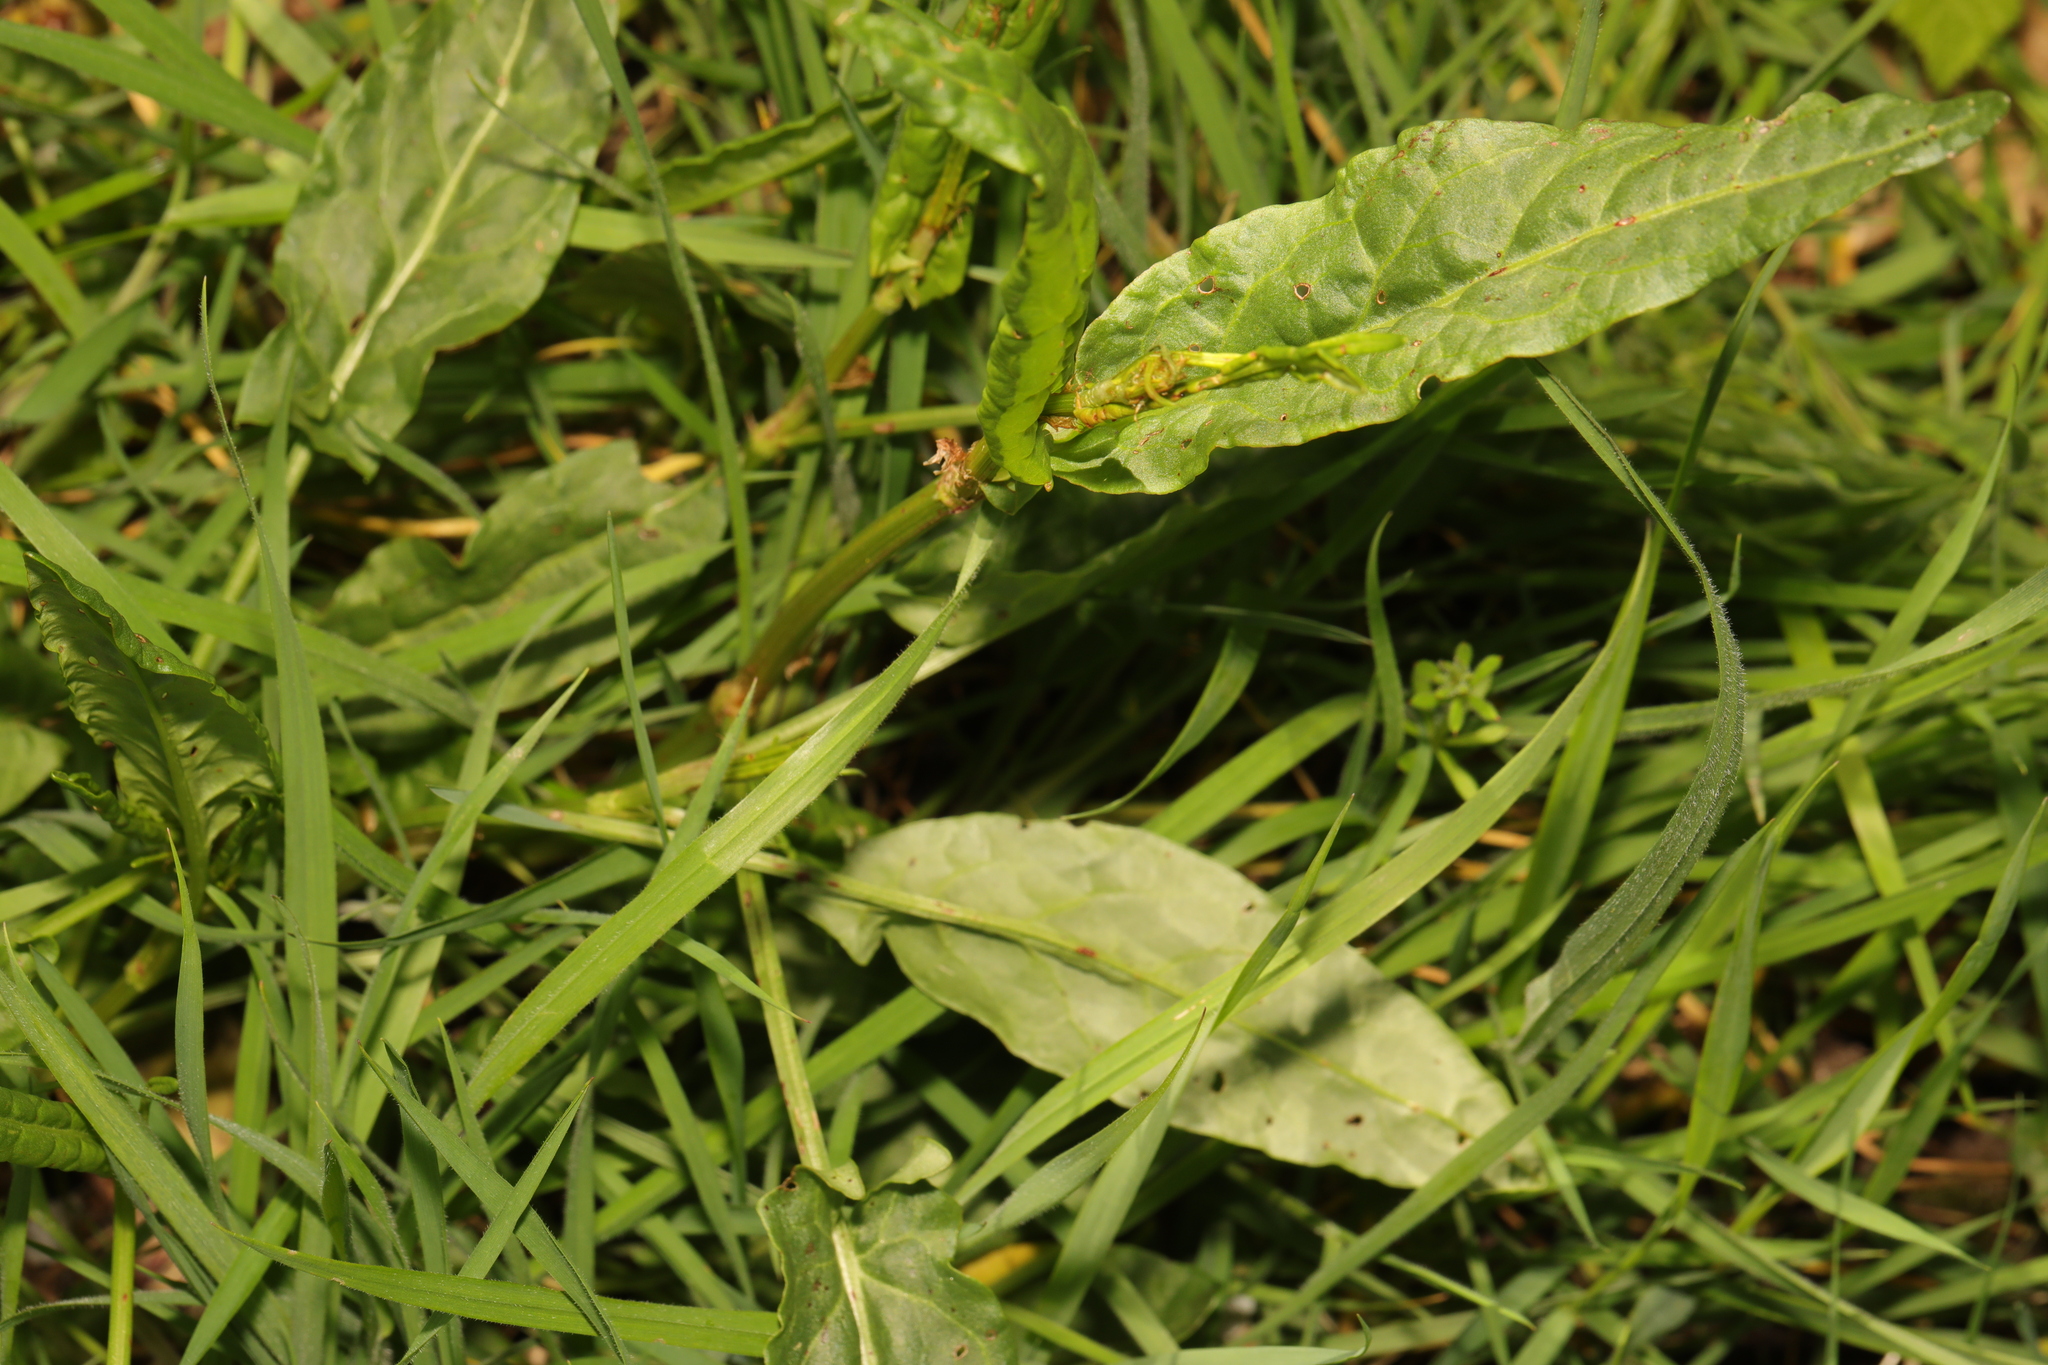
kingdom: Plantae
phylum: Tracheophyta
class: Magnoliopsida
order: Caryophyllales
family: Polygonaceae
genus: Rumex
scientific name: Rumex acetosa
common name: Garden sorrel
